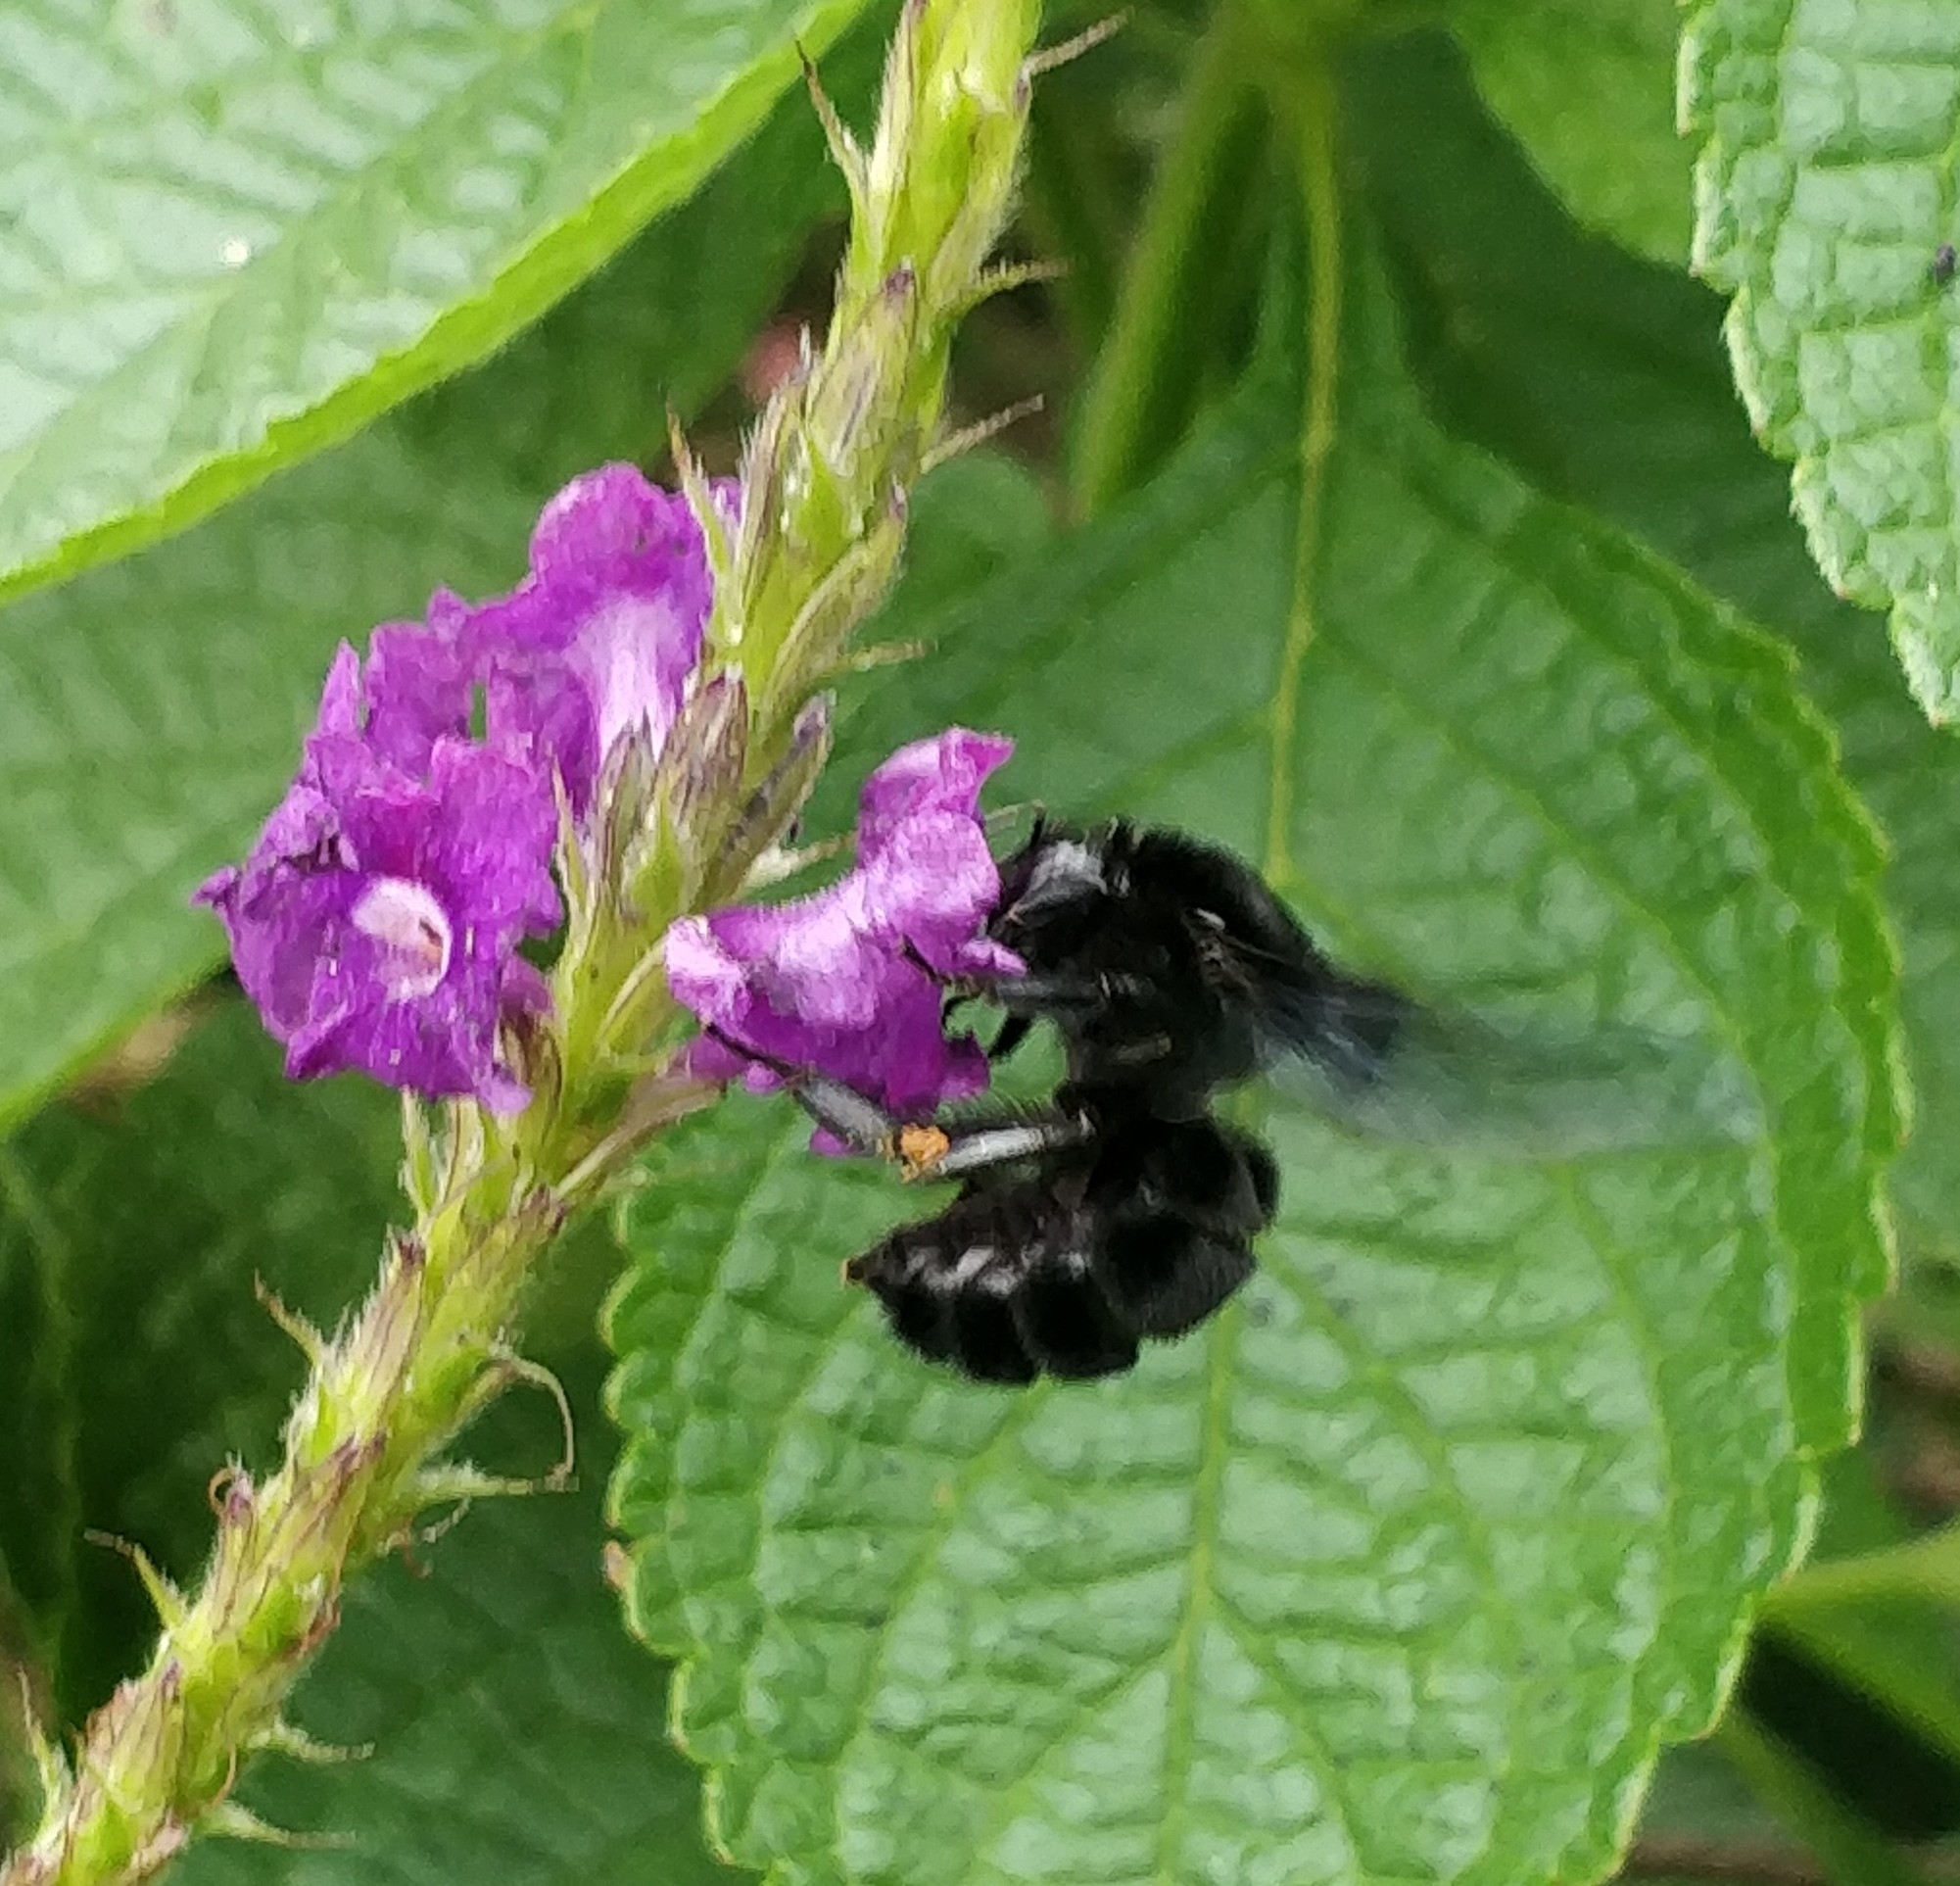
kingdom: Animalia
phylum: Arthropoda
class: Insecta
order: Hymenoptera
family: Apidae
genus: Bombus
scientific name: Bombus pullatus
